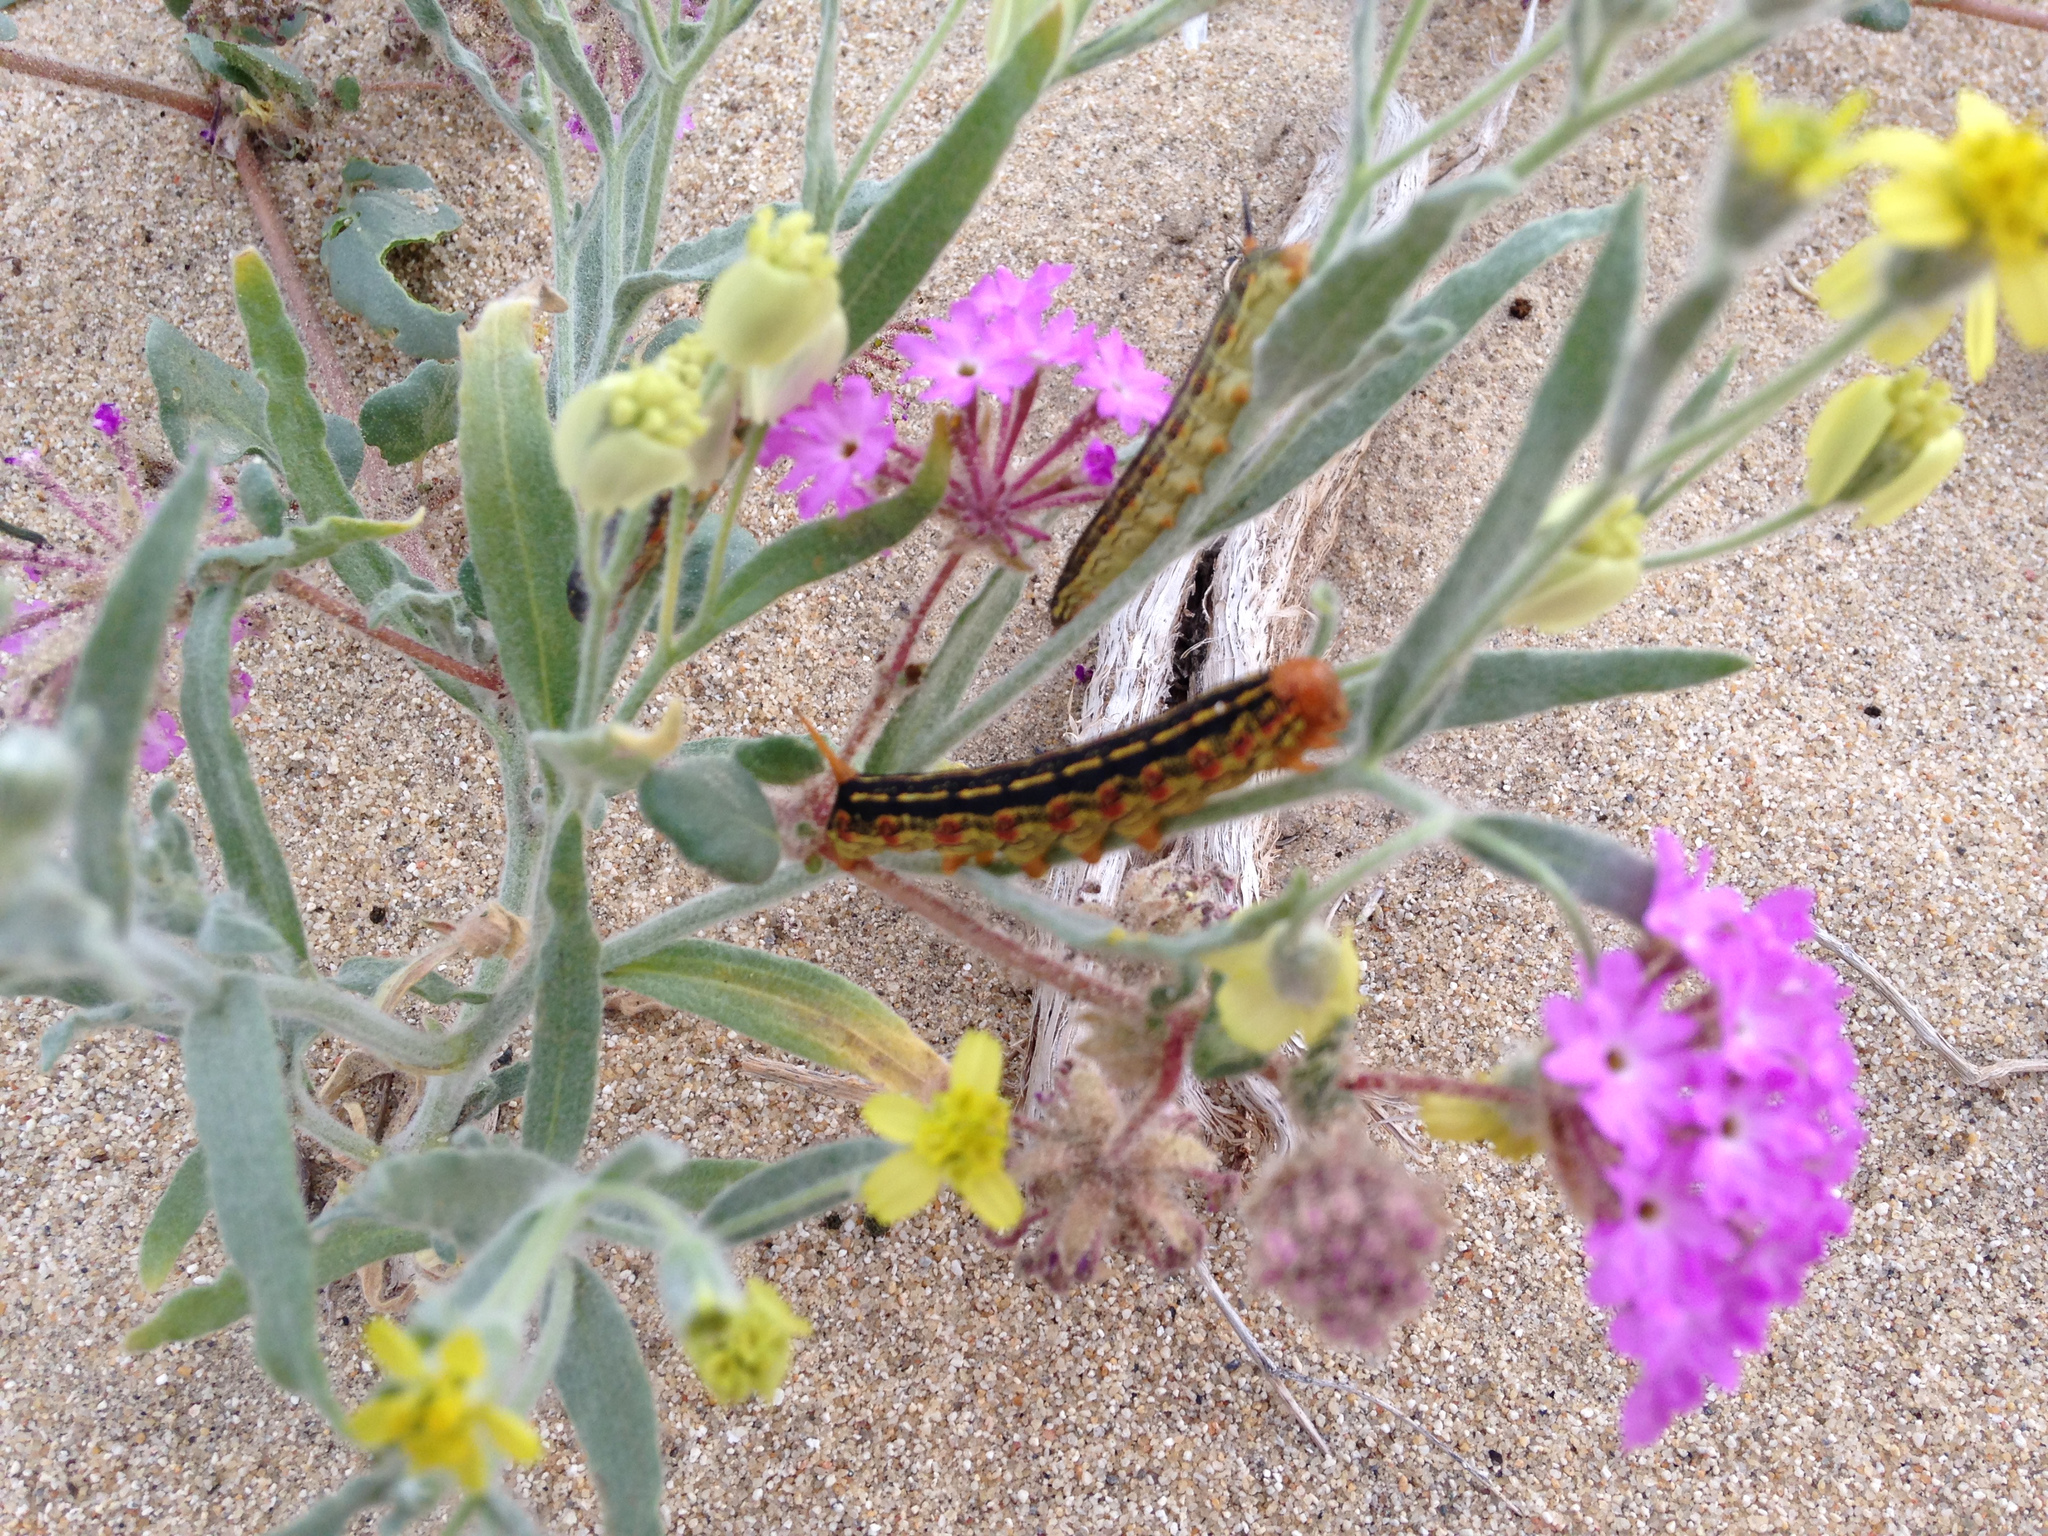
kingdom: Plantae
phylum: Tracheophyta
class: Magnoliopsida
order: Asterales
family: Asteraceae
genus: Baileya
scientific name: Baileya pauciradiata
